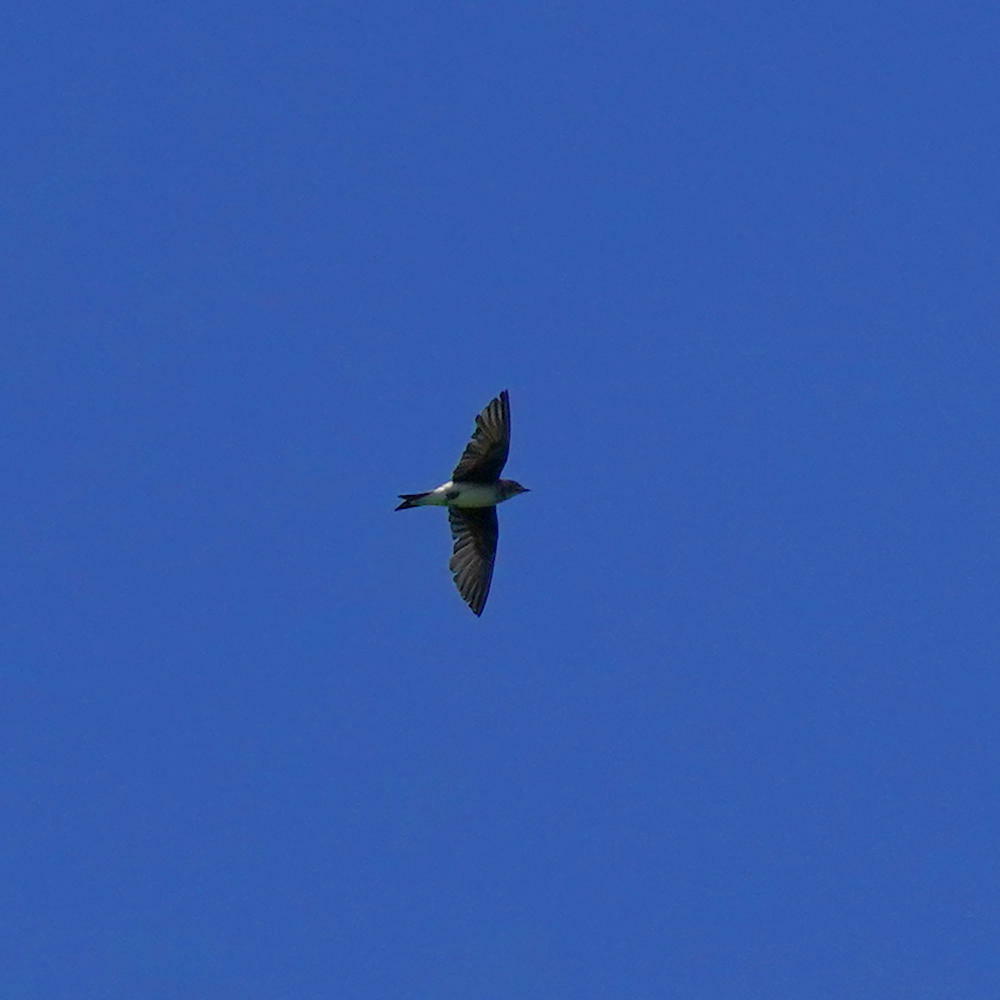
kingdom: Animalia
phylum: Chordata
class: Aves
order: Passeriformes
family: Hirundinidae
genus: Progne
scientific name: Progne chalybea
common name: Grey-breasted martin
